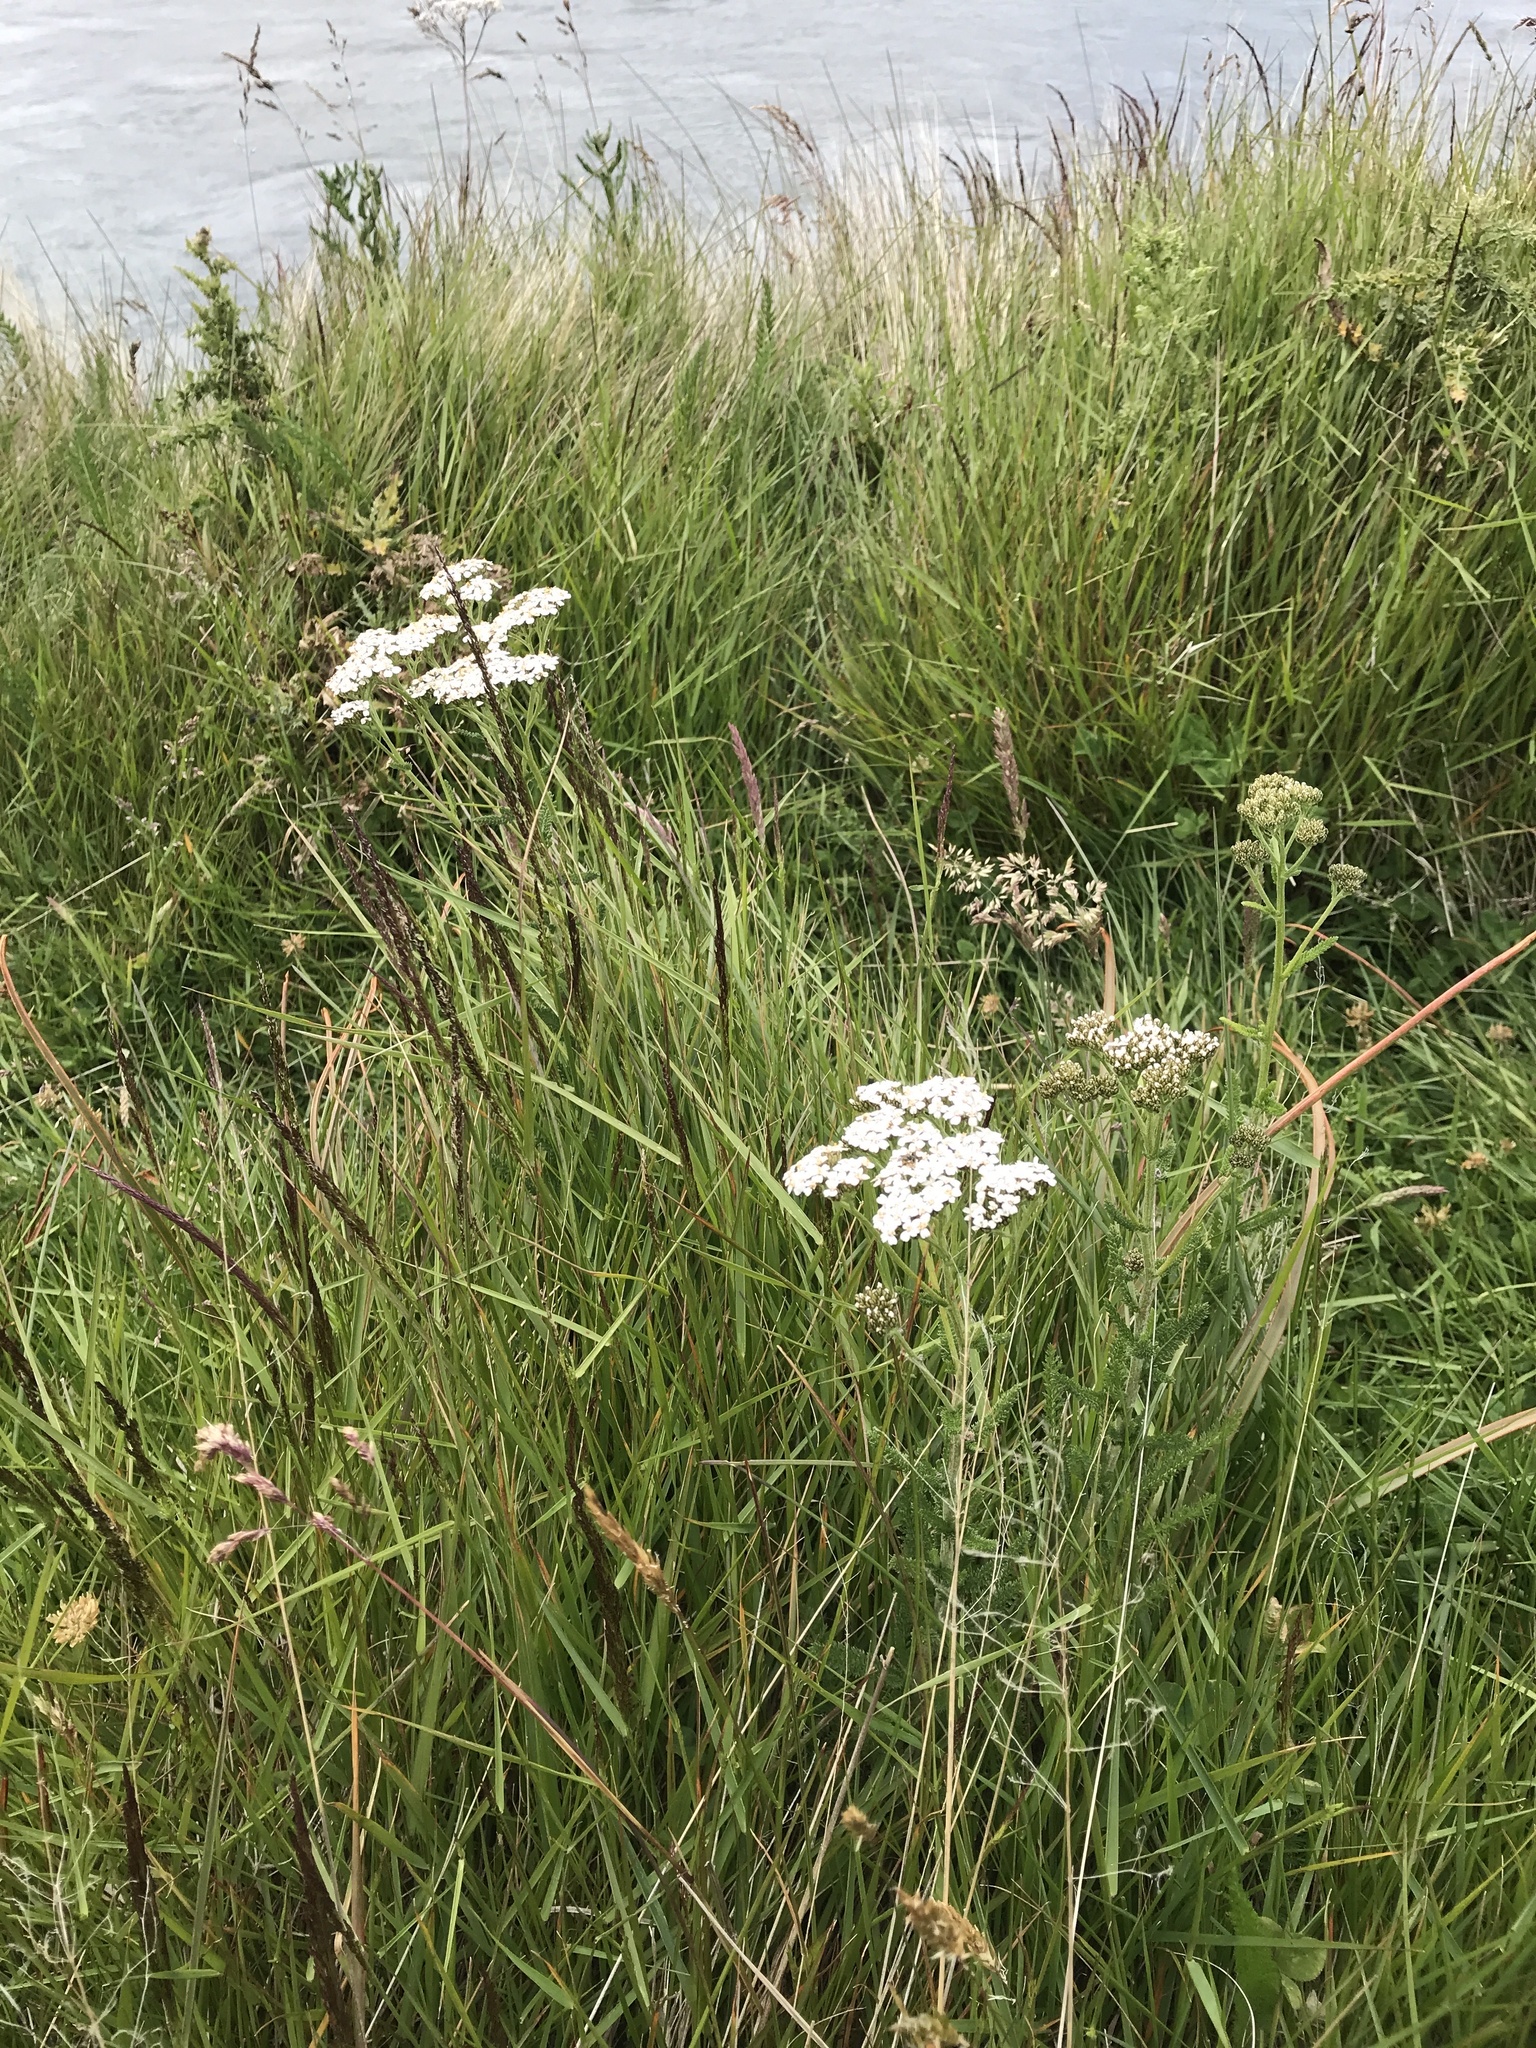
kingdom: Plantae
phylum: Tracheophyta
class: Magnoliopsida
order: Asterales
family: Asteraceae
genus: Achillea
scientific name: Achillea millefolium
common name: Yarrow
